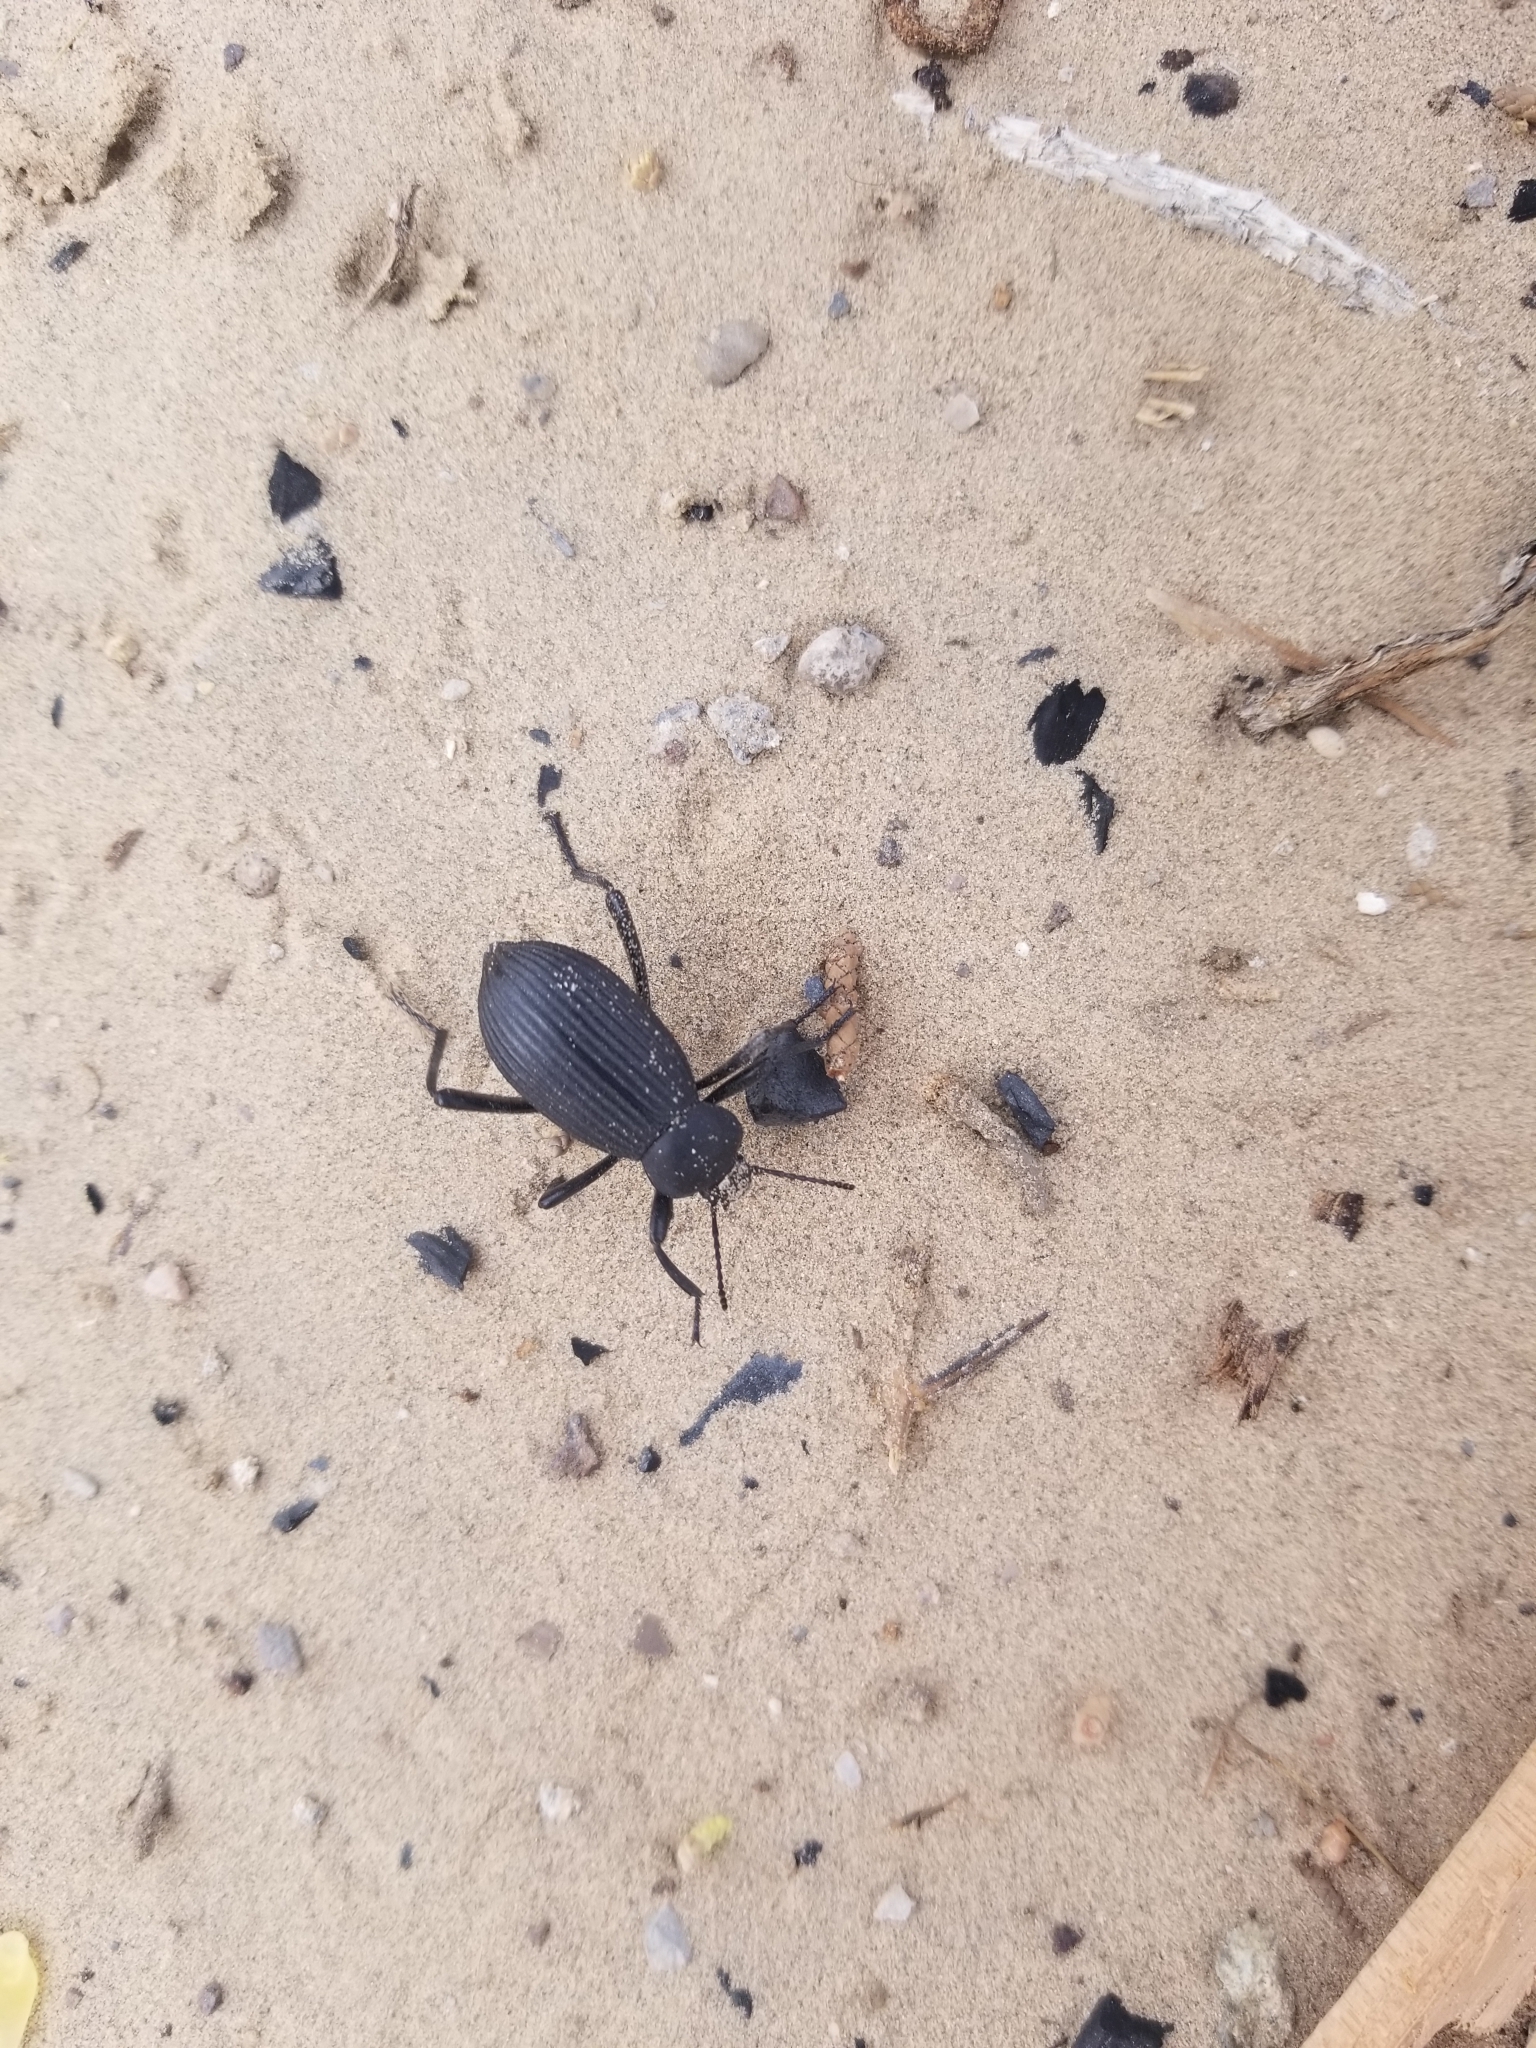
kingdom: Animalia
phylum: Arthropoda
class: Insecta
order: Coleoptera
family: Tenebrionidae
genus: Eleodes
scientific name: Eleodes hispilabris
